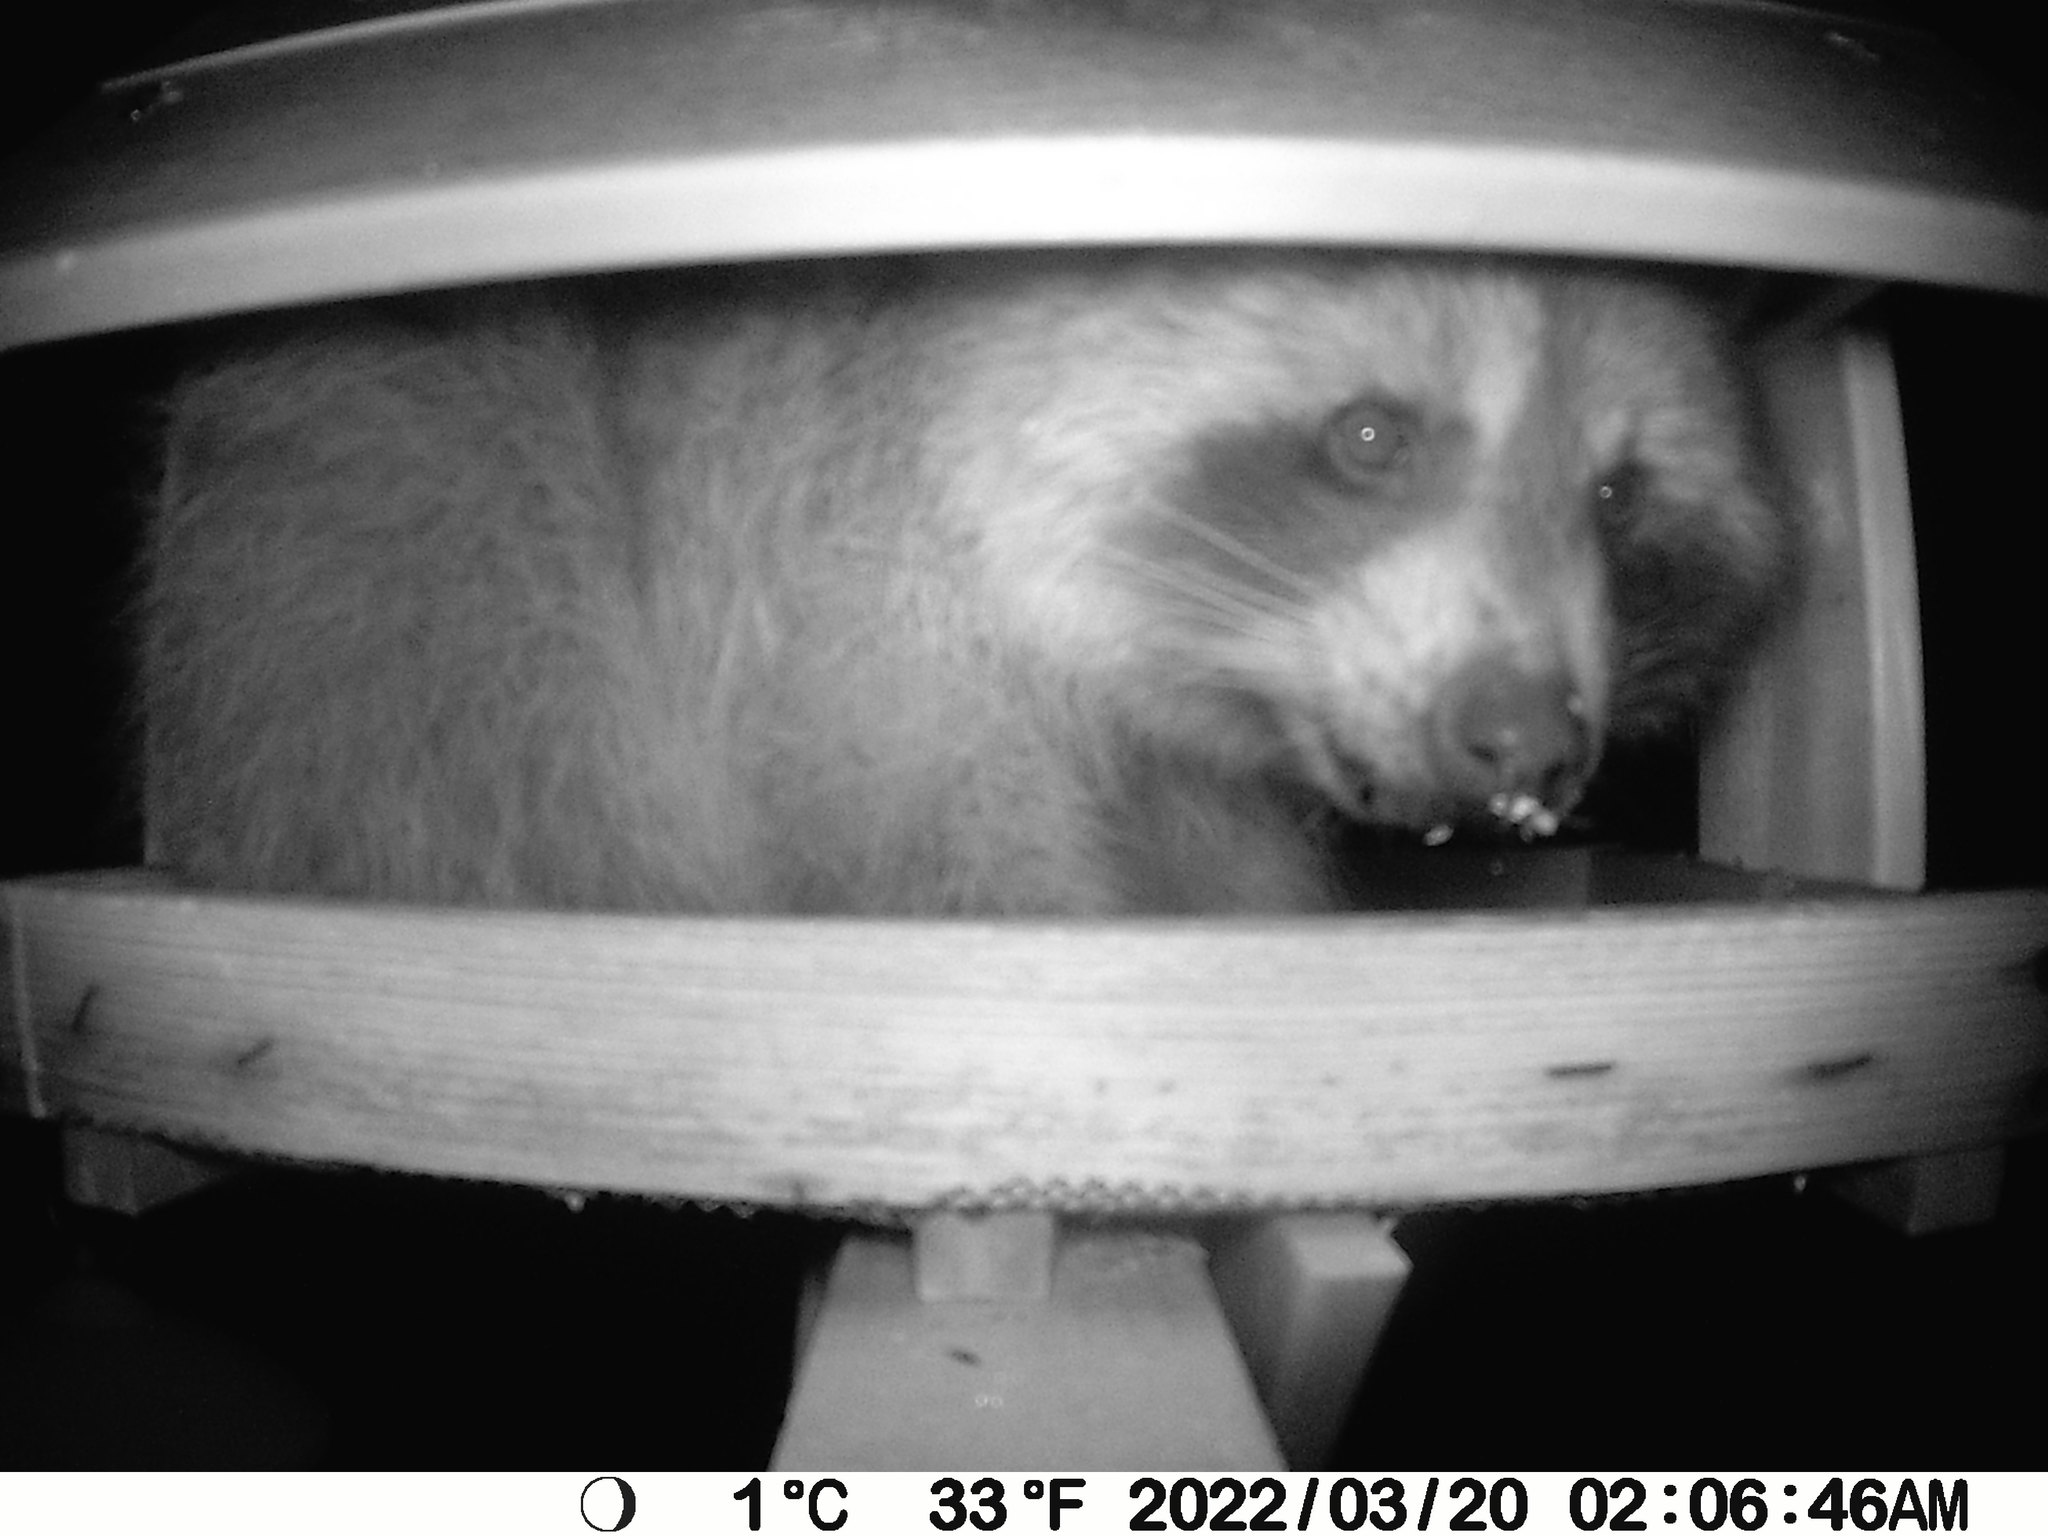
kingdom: Animalia
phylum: Chordata
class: Mammalia
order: Carnivora
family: Procyonidae
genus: Procyon
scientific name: Procyon lotor
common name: Raccoon
